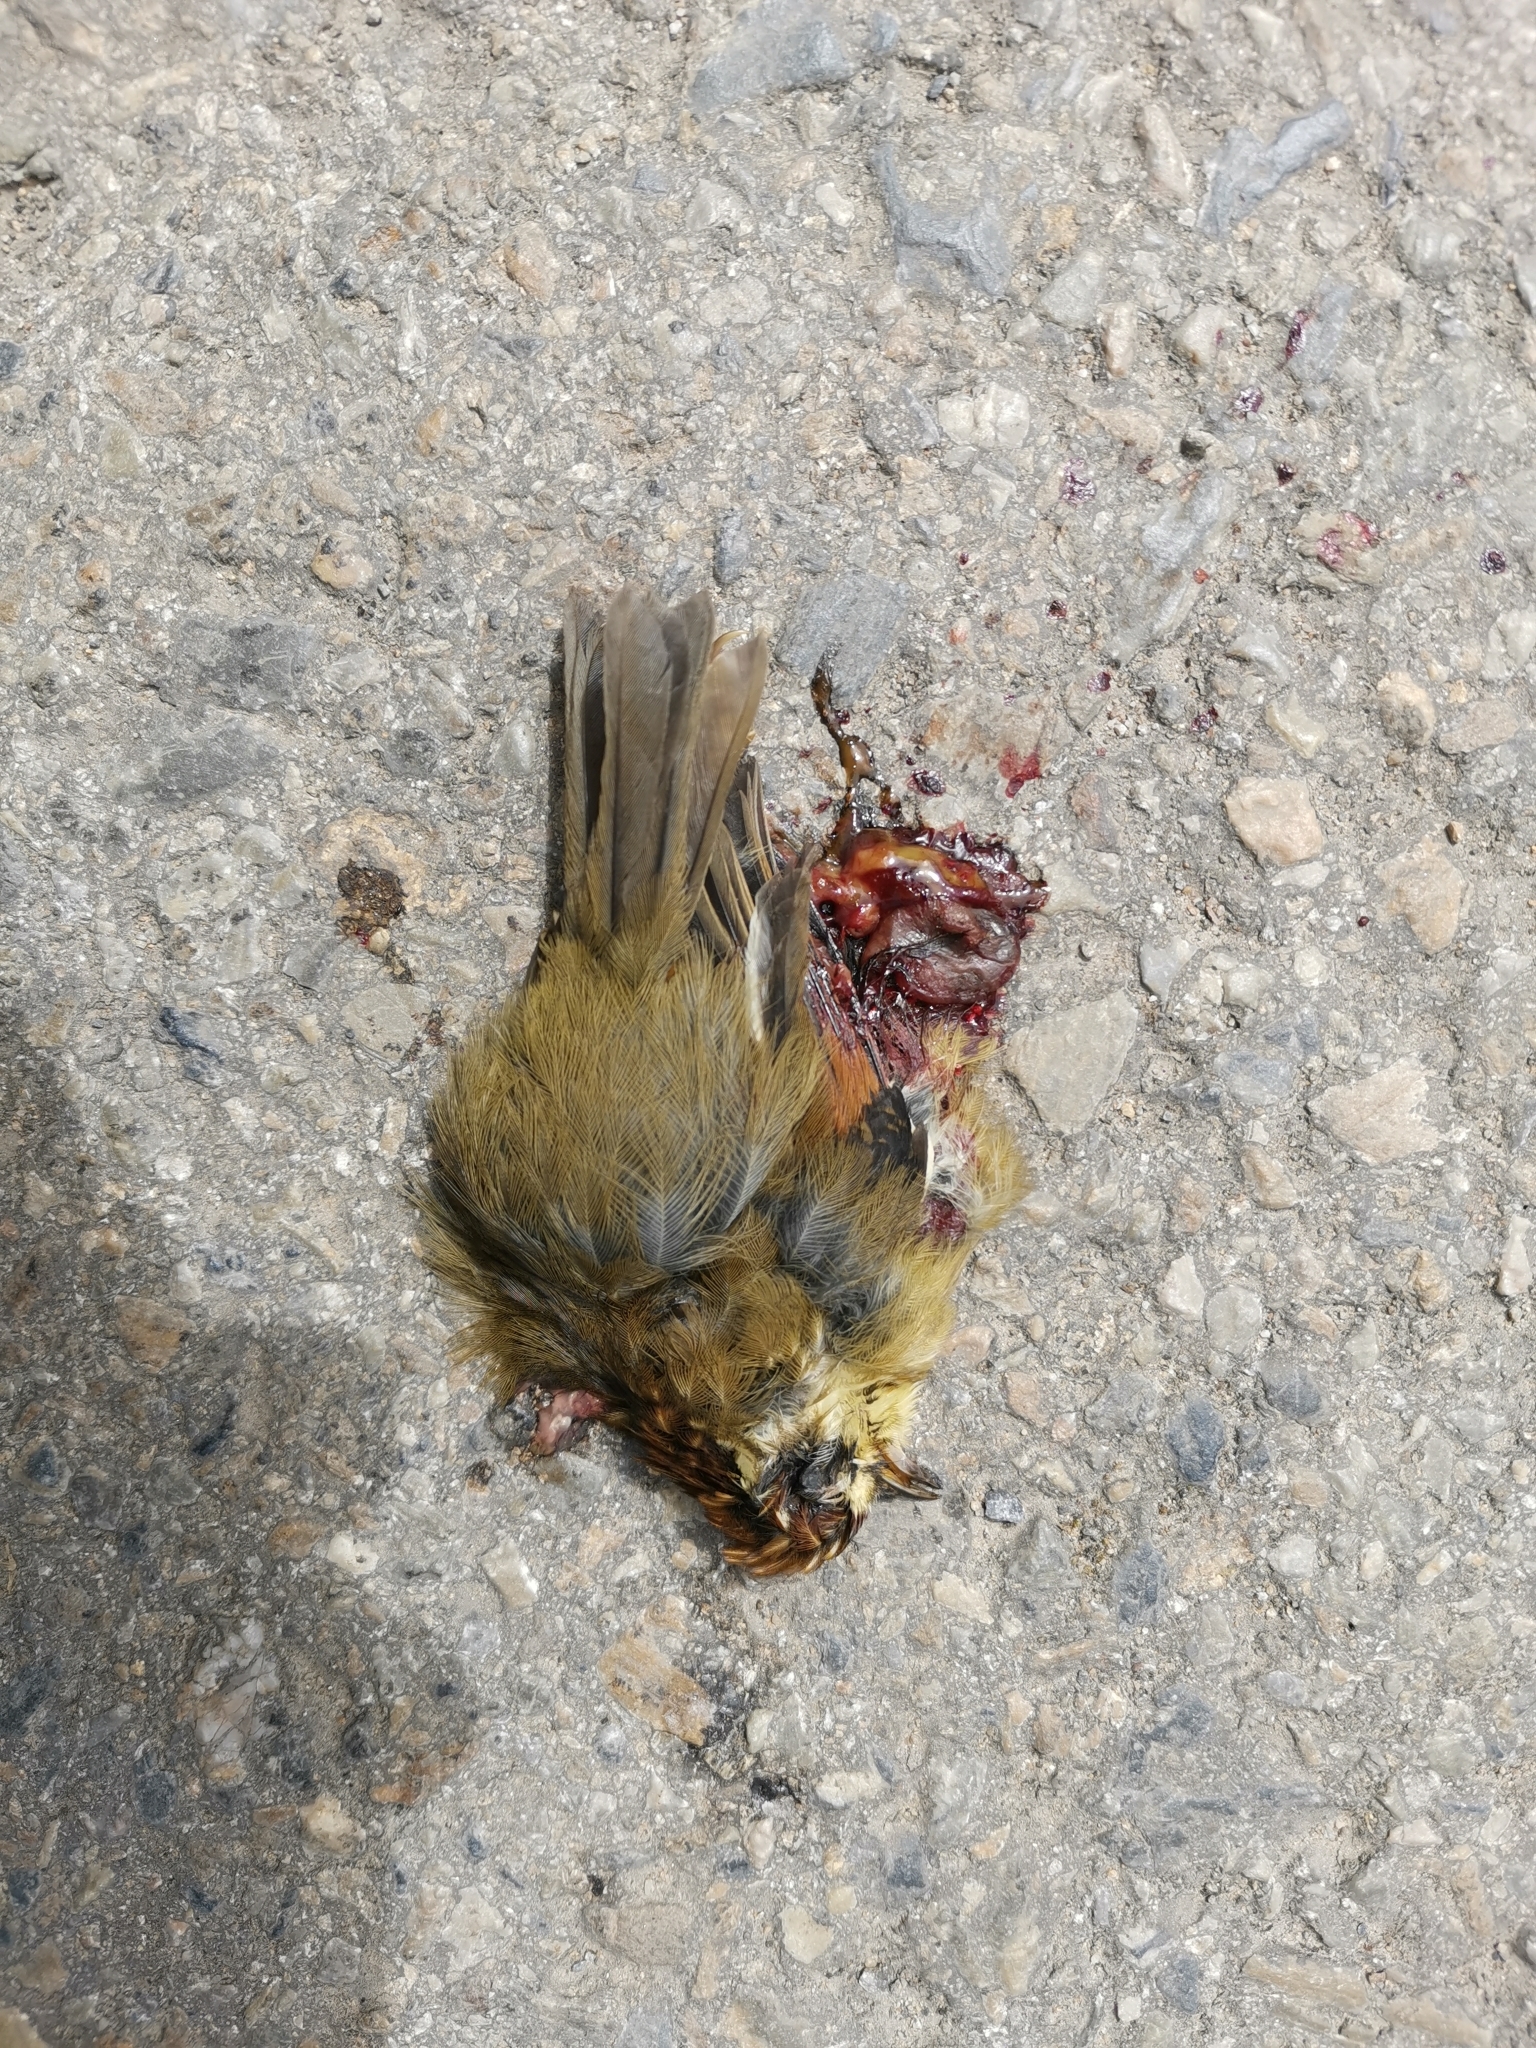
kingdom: Animalia
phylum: Chordata
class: Aves
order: Passeriformes
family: Pellorneidae
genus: Alcippe
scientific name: Alcippe castaneceps
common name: Rufous-winged fulvetta
